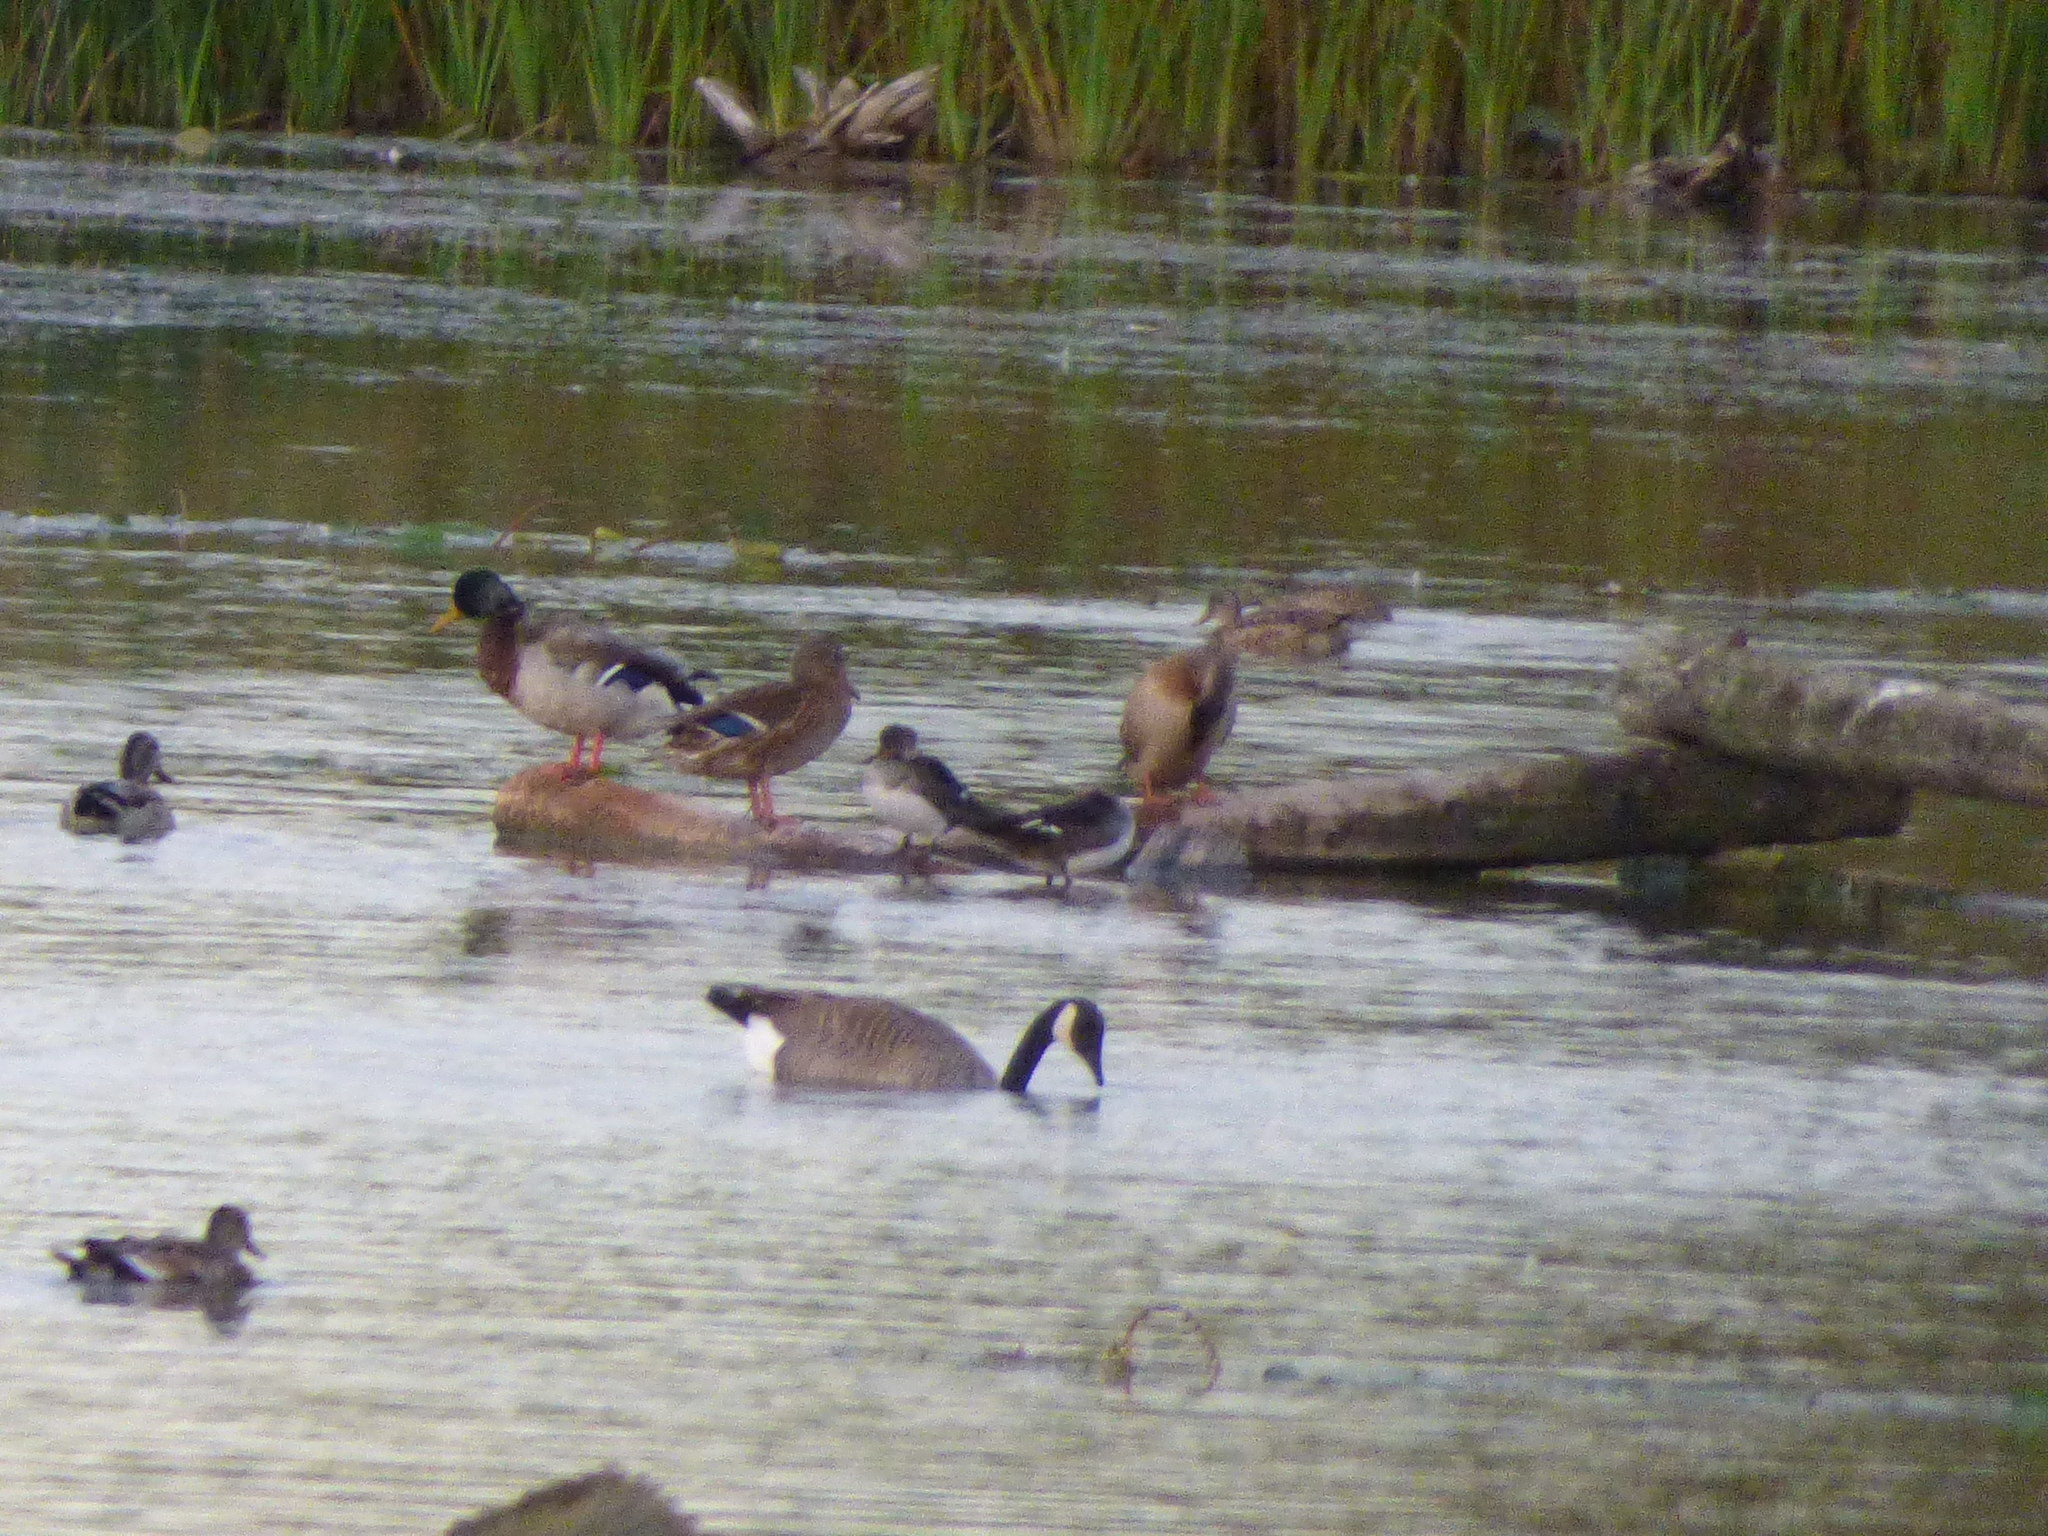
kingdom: Animalia
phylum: Chordata
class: Aves
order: Anseriformes
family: Anatidae
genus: Branta
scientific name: Branta canadensis
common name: Canada goose
